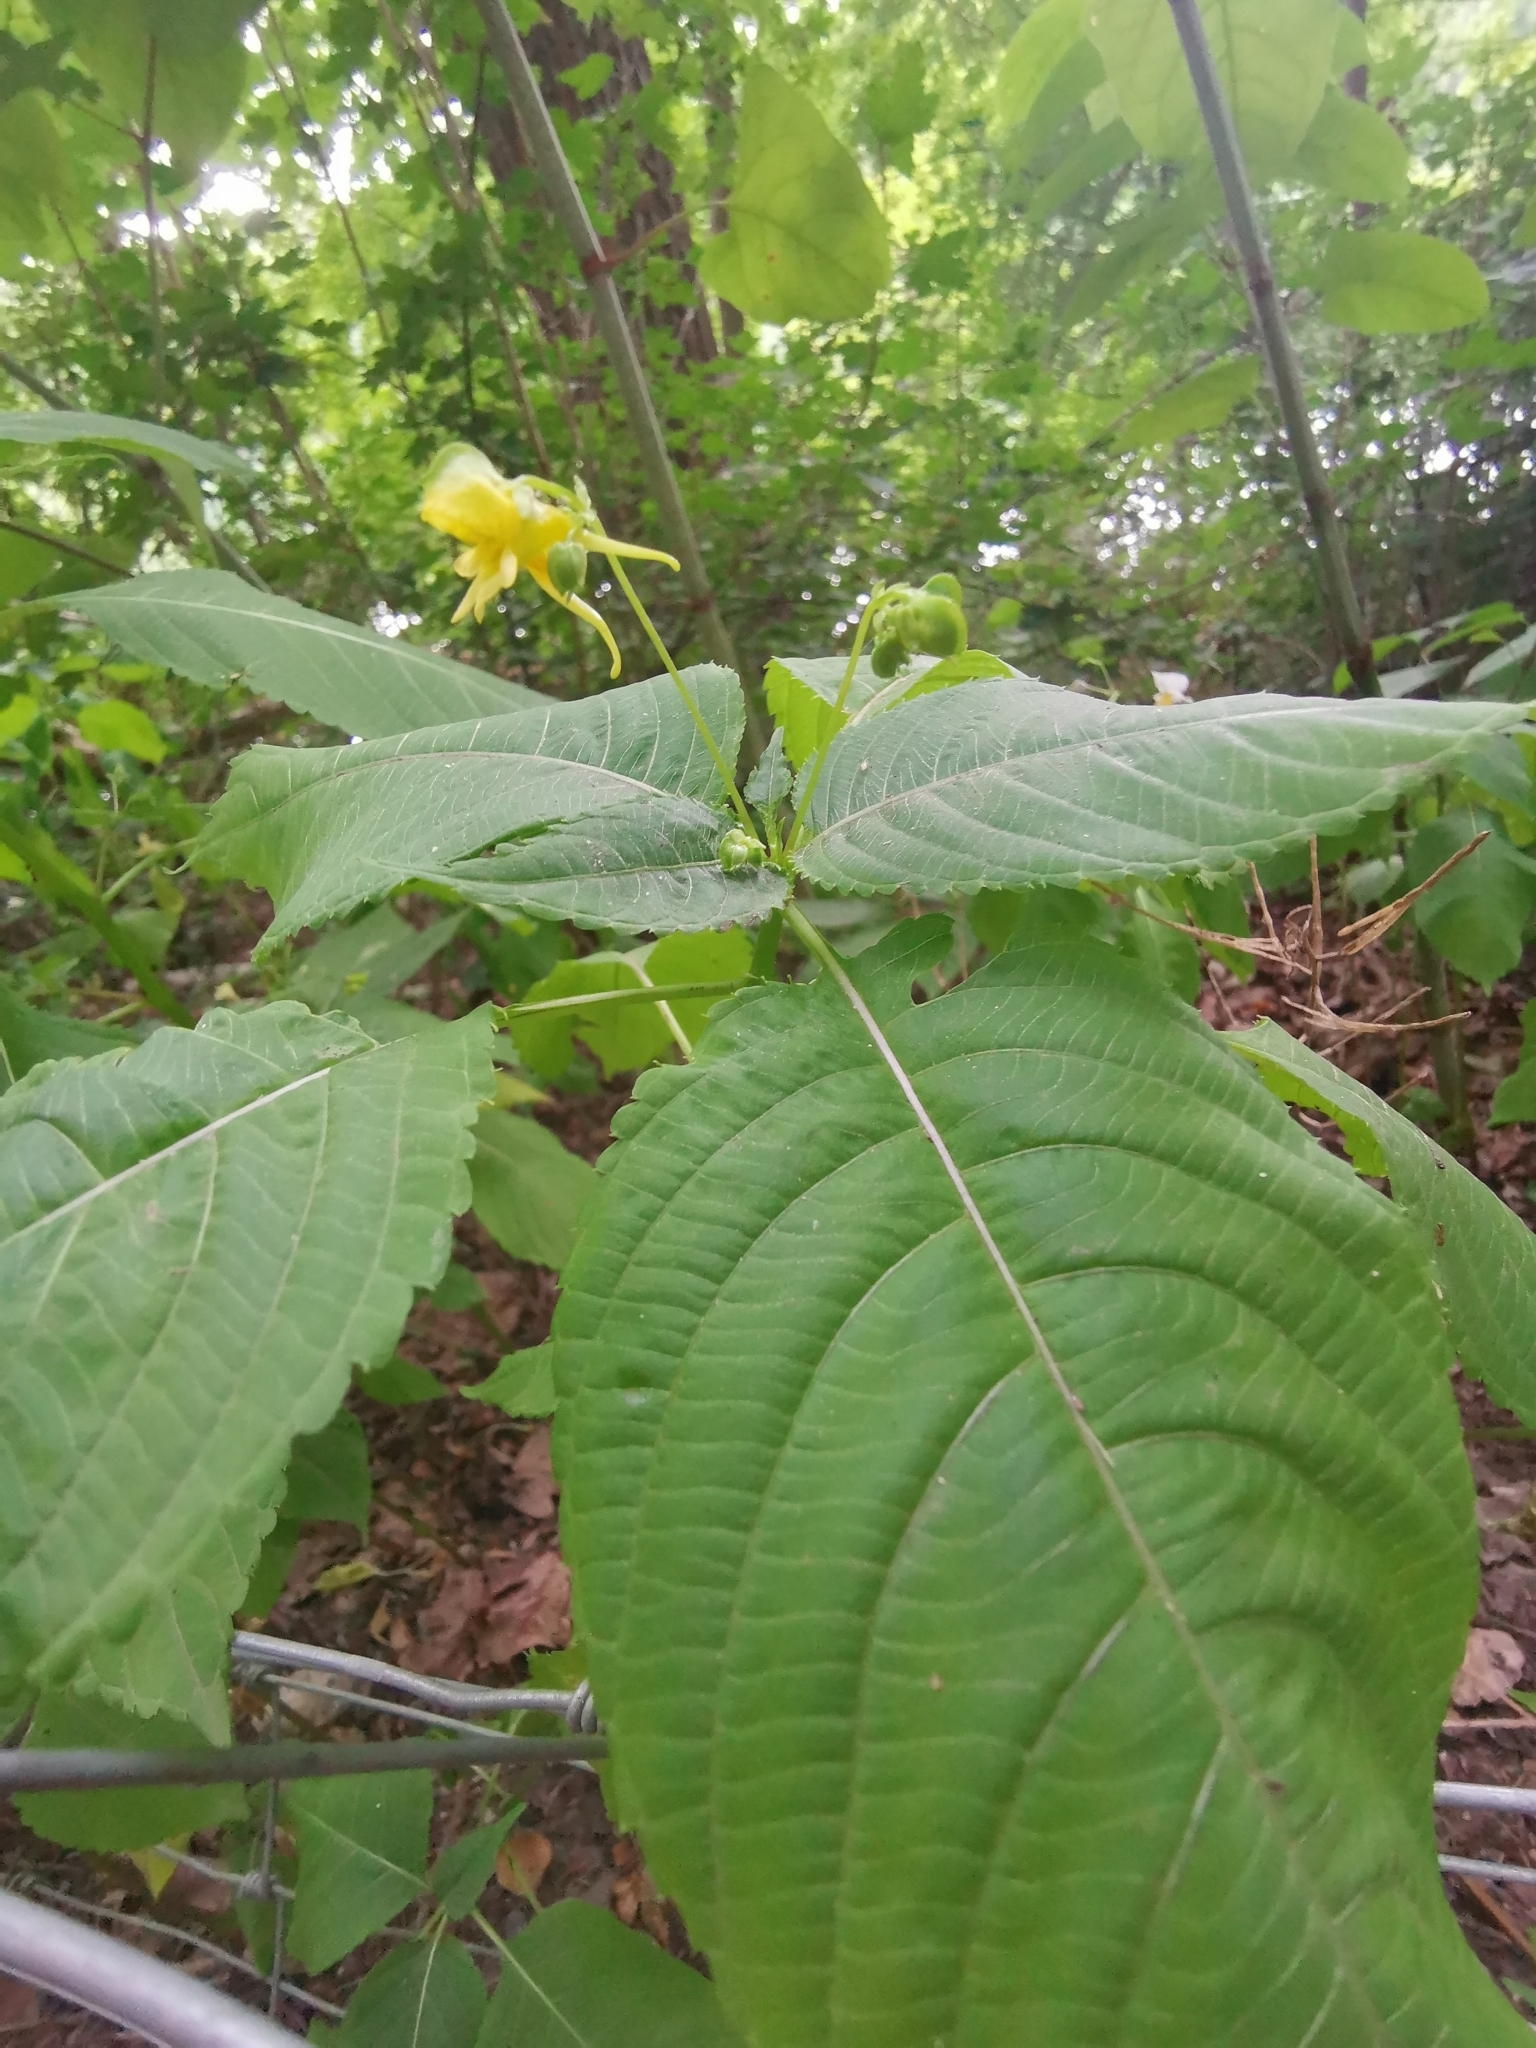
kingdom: Plantae
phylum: Tracheophyta
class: Magnoliopsida
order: Ericales
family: Balsaminaceae
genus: Impatiens
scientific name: Impatiens edgeworthii
